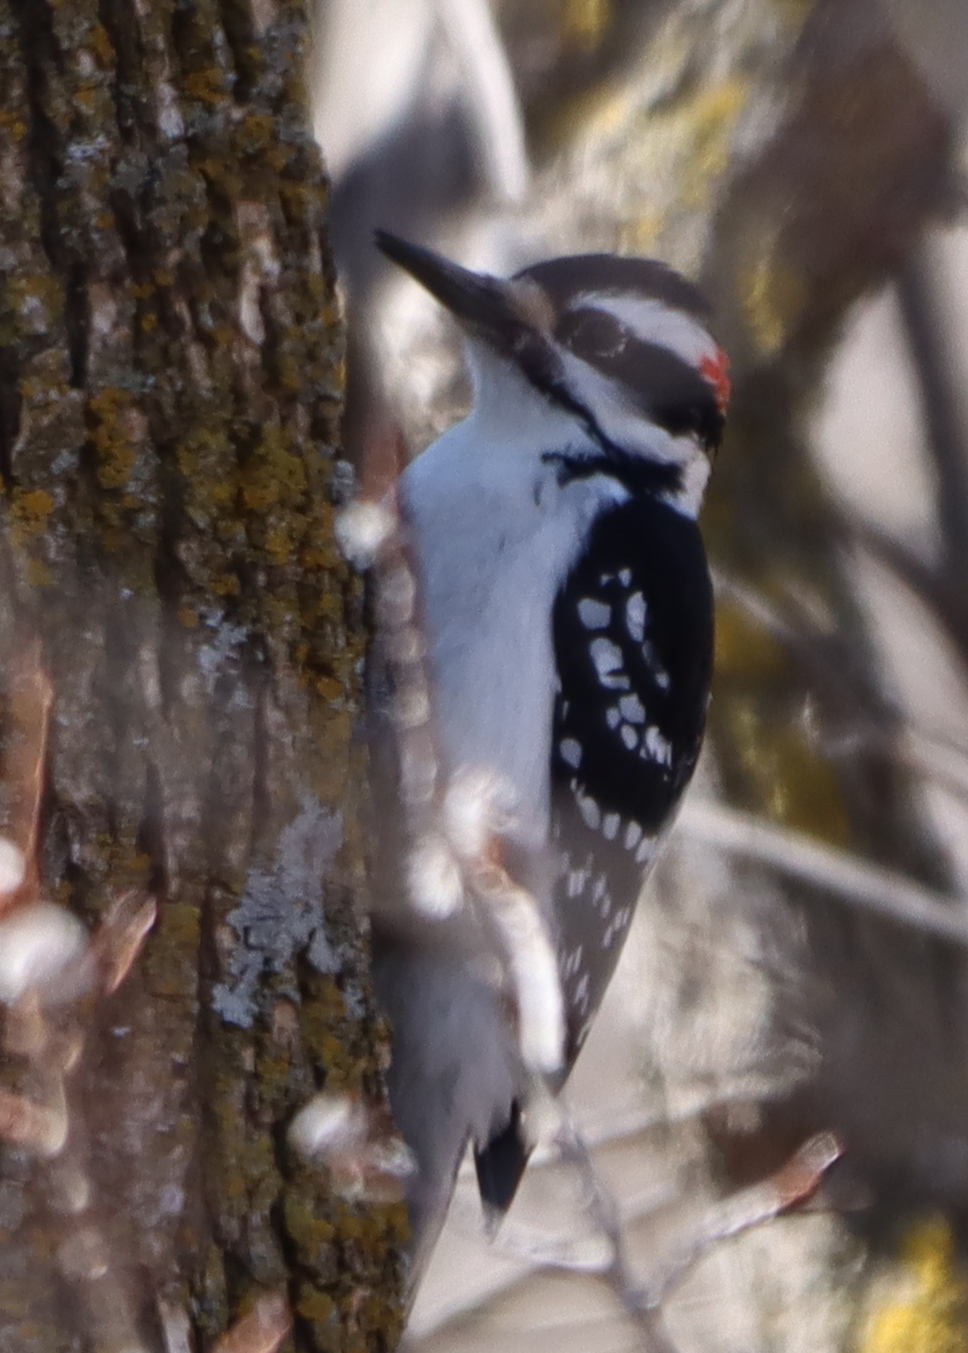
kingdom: Animalia
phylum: Chordata
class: Aves
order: Piciformes
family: Picidae
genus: Leuconotopicus
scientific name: Leuconotopicus villosus
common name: Hairy woodpecker
